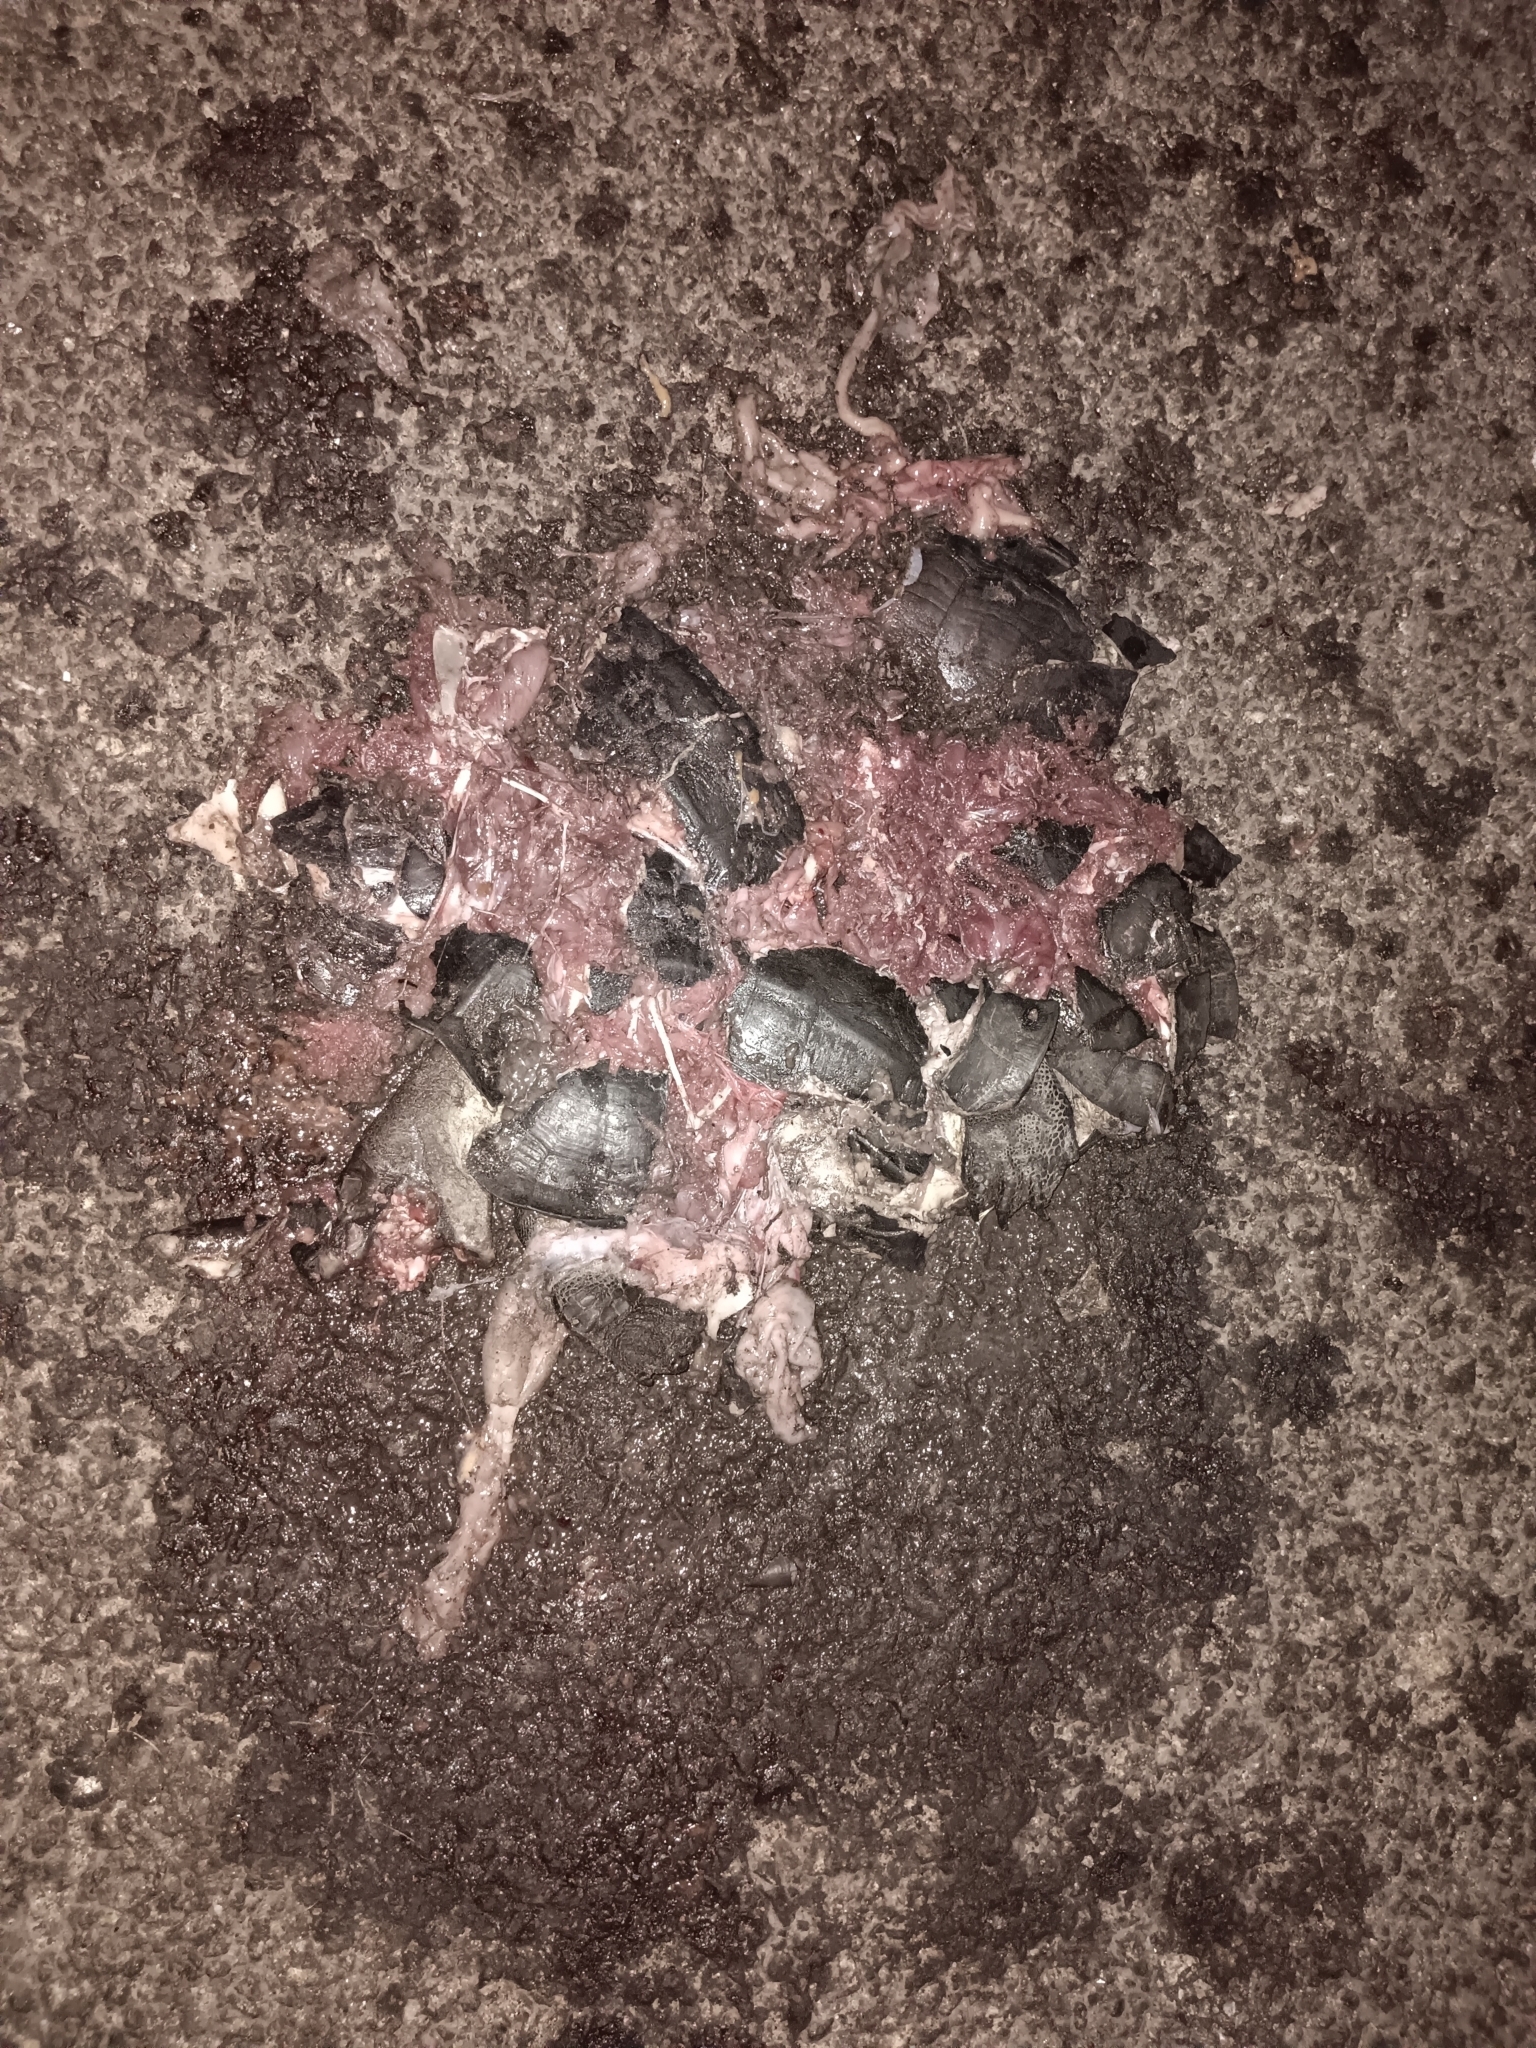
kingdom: Animalia
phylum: Chordata
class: Testudines
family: Geoemydidae
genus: Melanochelys
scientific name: Melanochelys trijuga
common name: Indian black turtle
